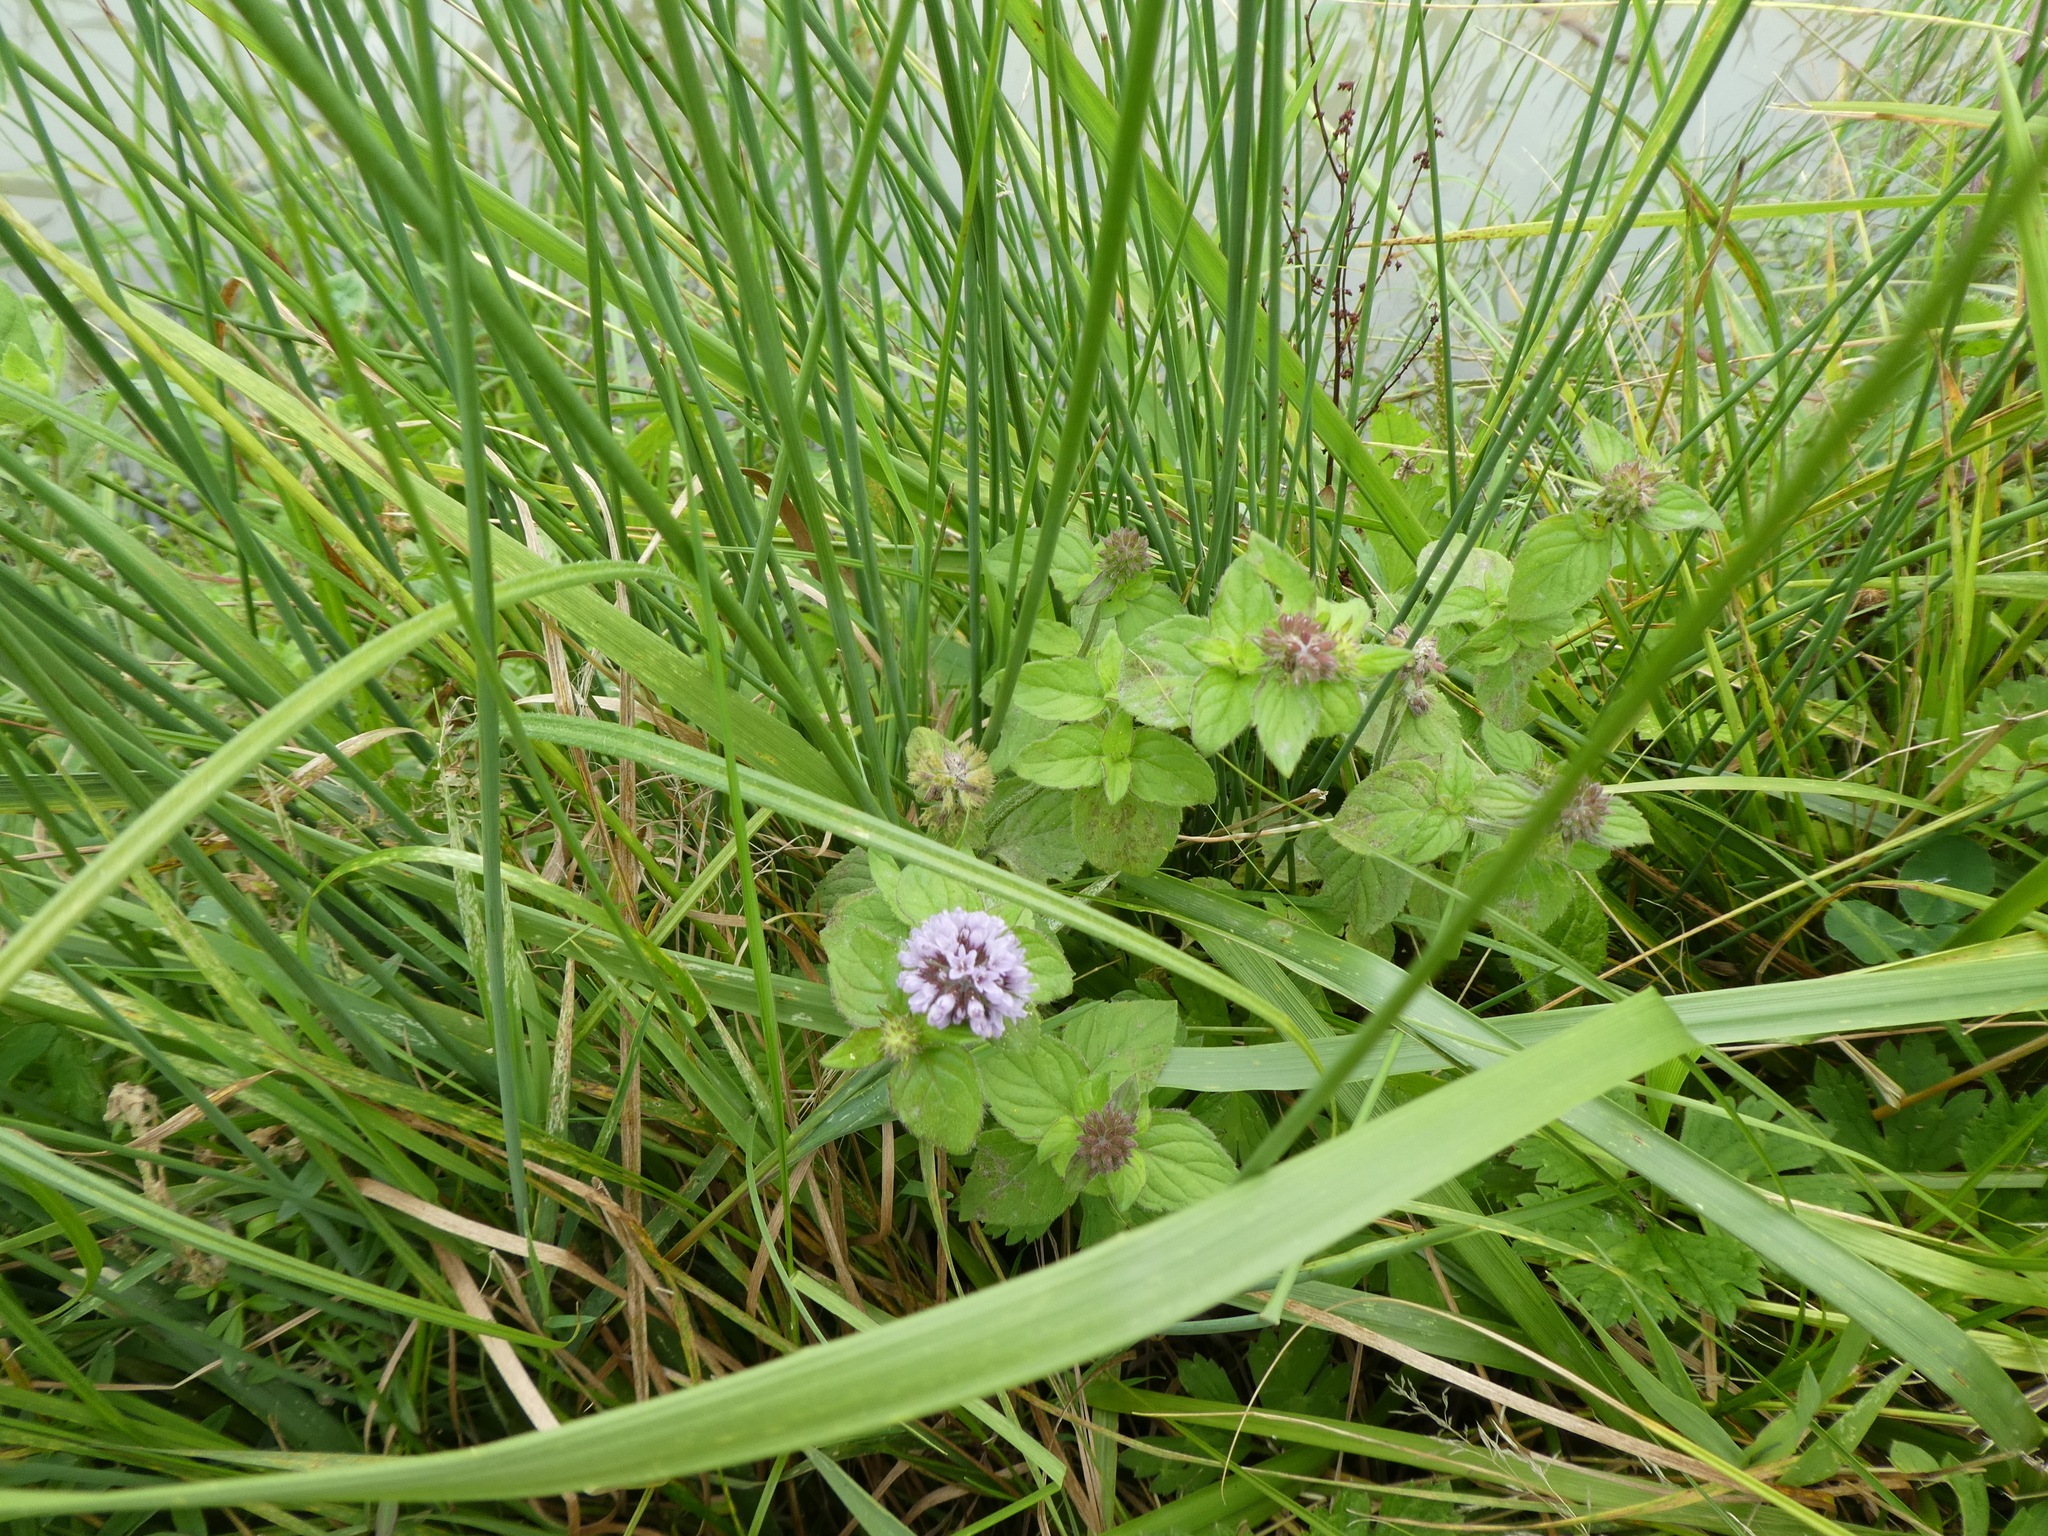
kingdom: Plantae
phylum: Tracheophyta
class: Magnoliopsida
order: Lamiales
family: Lamiaceae
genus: Mentha
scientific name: Mentha aquatica
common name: Water mint
